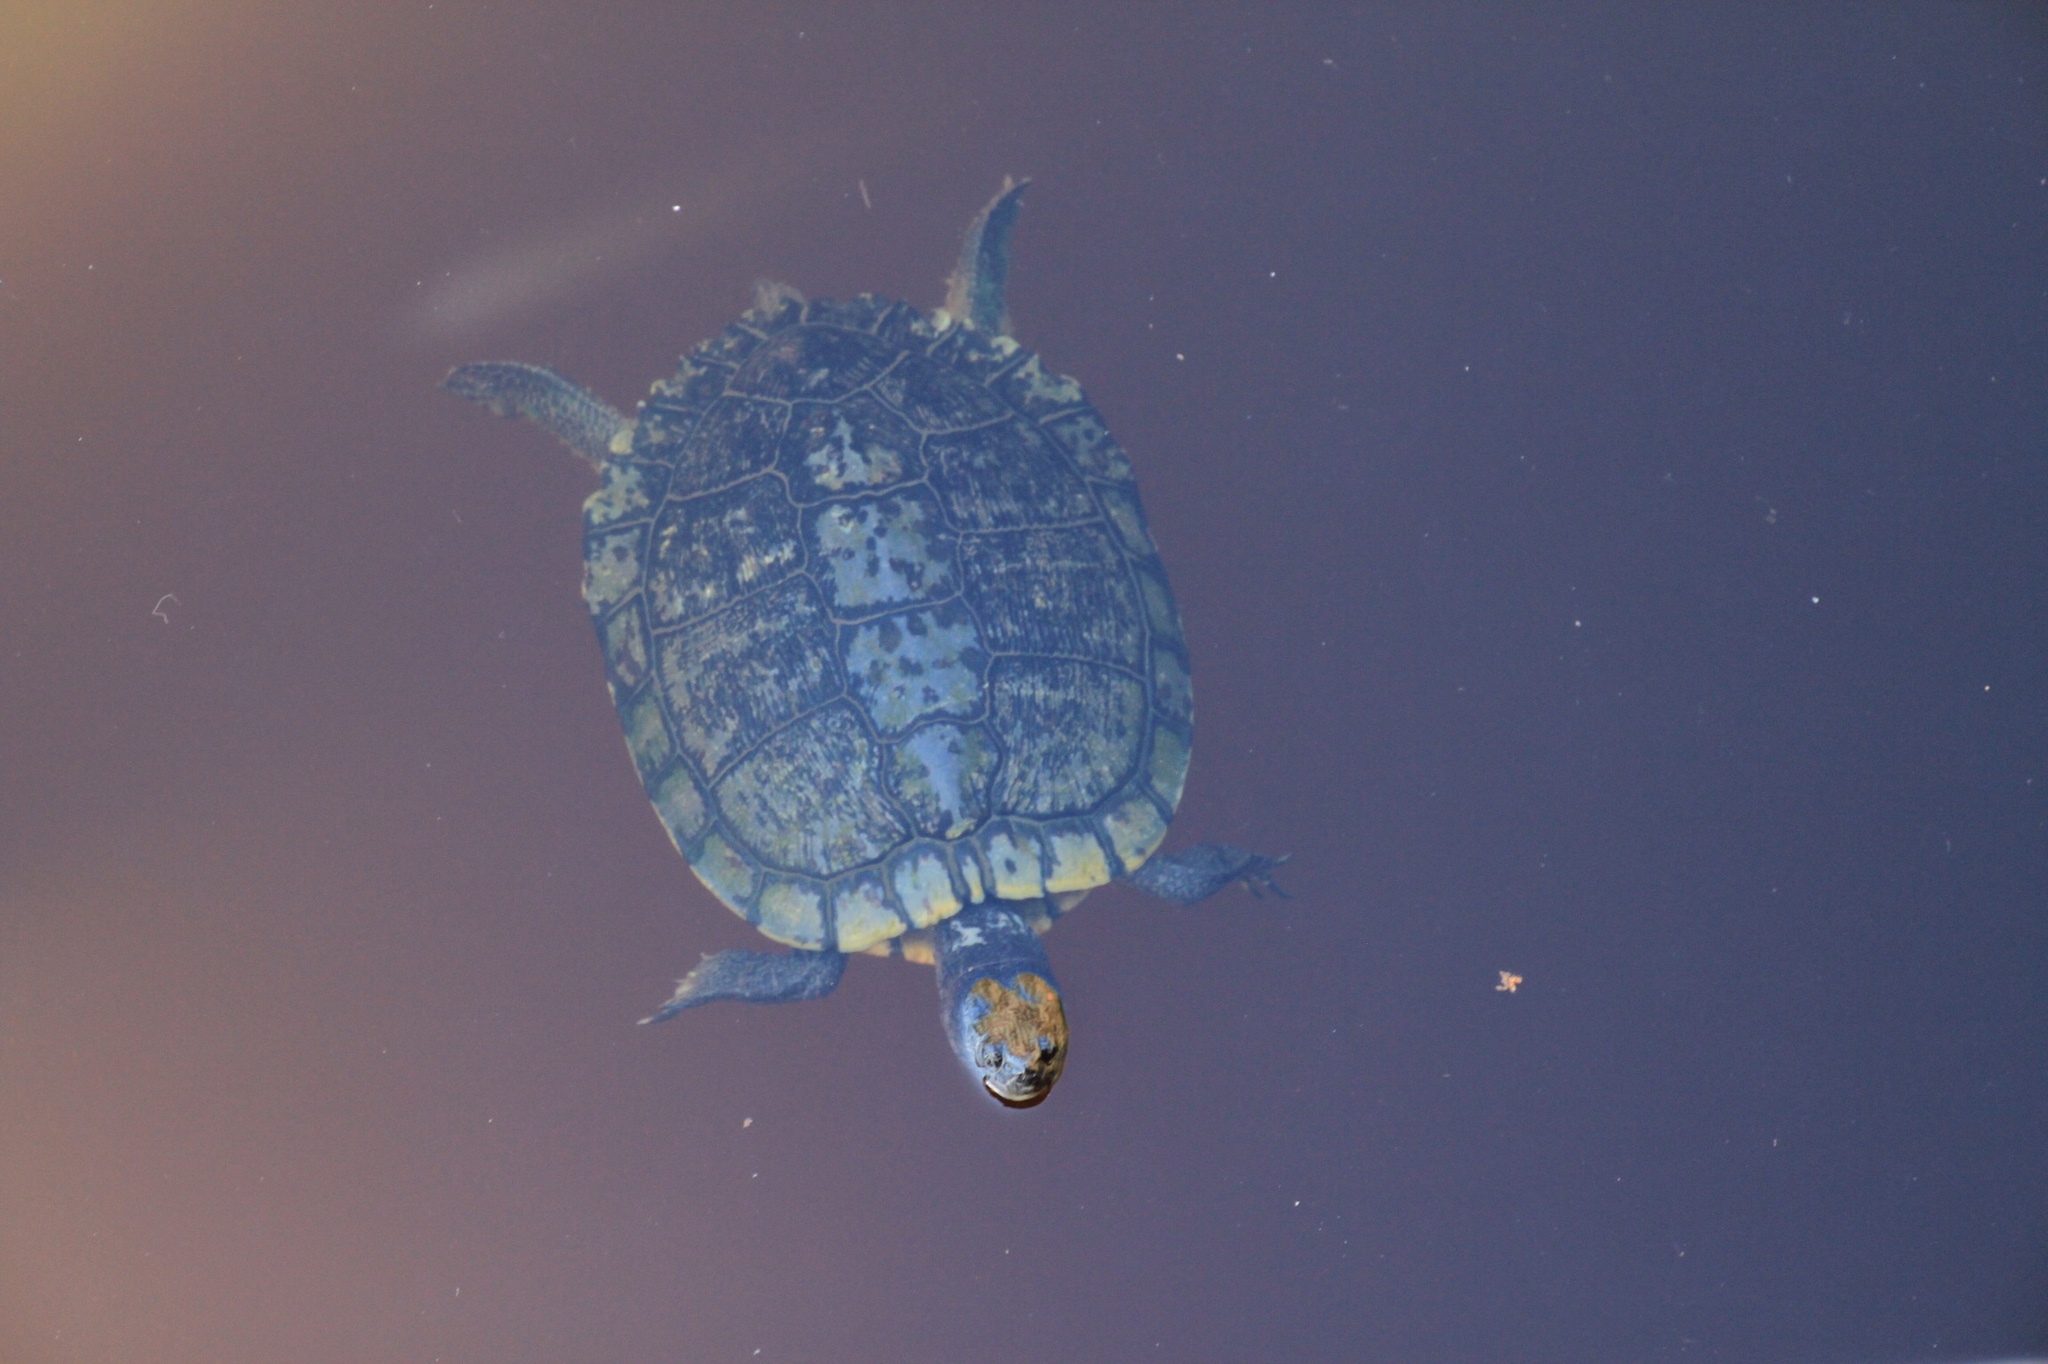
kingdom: Animalia
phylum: Chordata
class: Testudines
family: Emydidae
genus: Trachemys
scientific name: Trachemys scripta
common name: Slider
